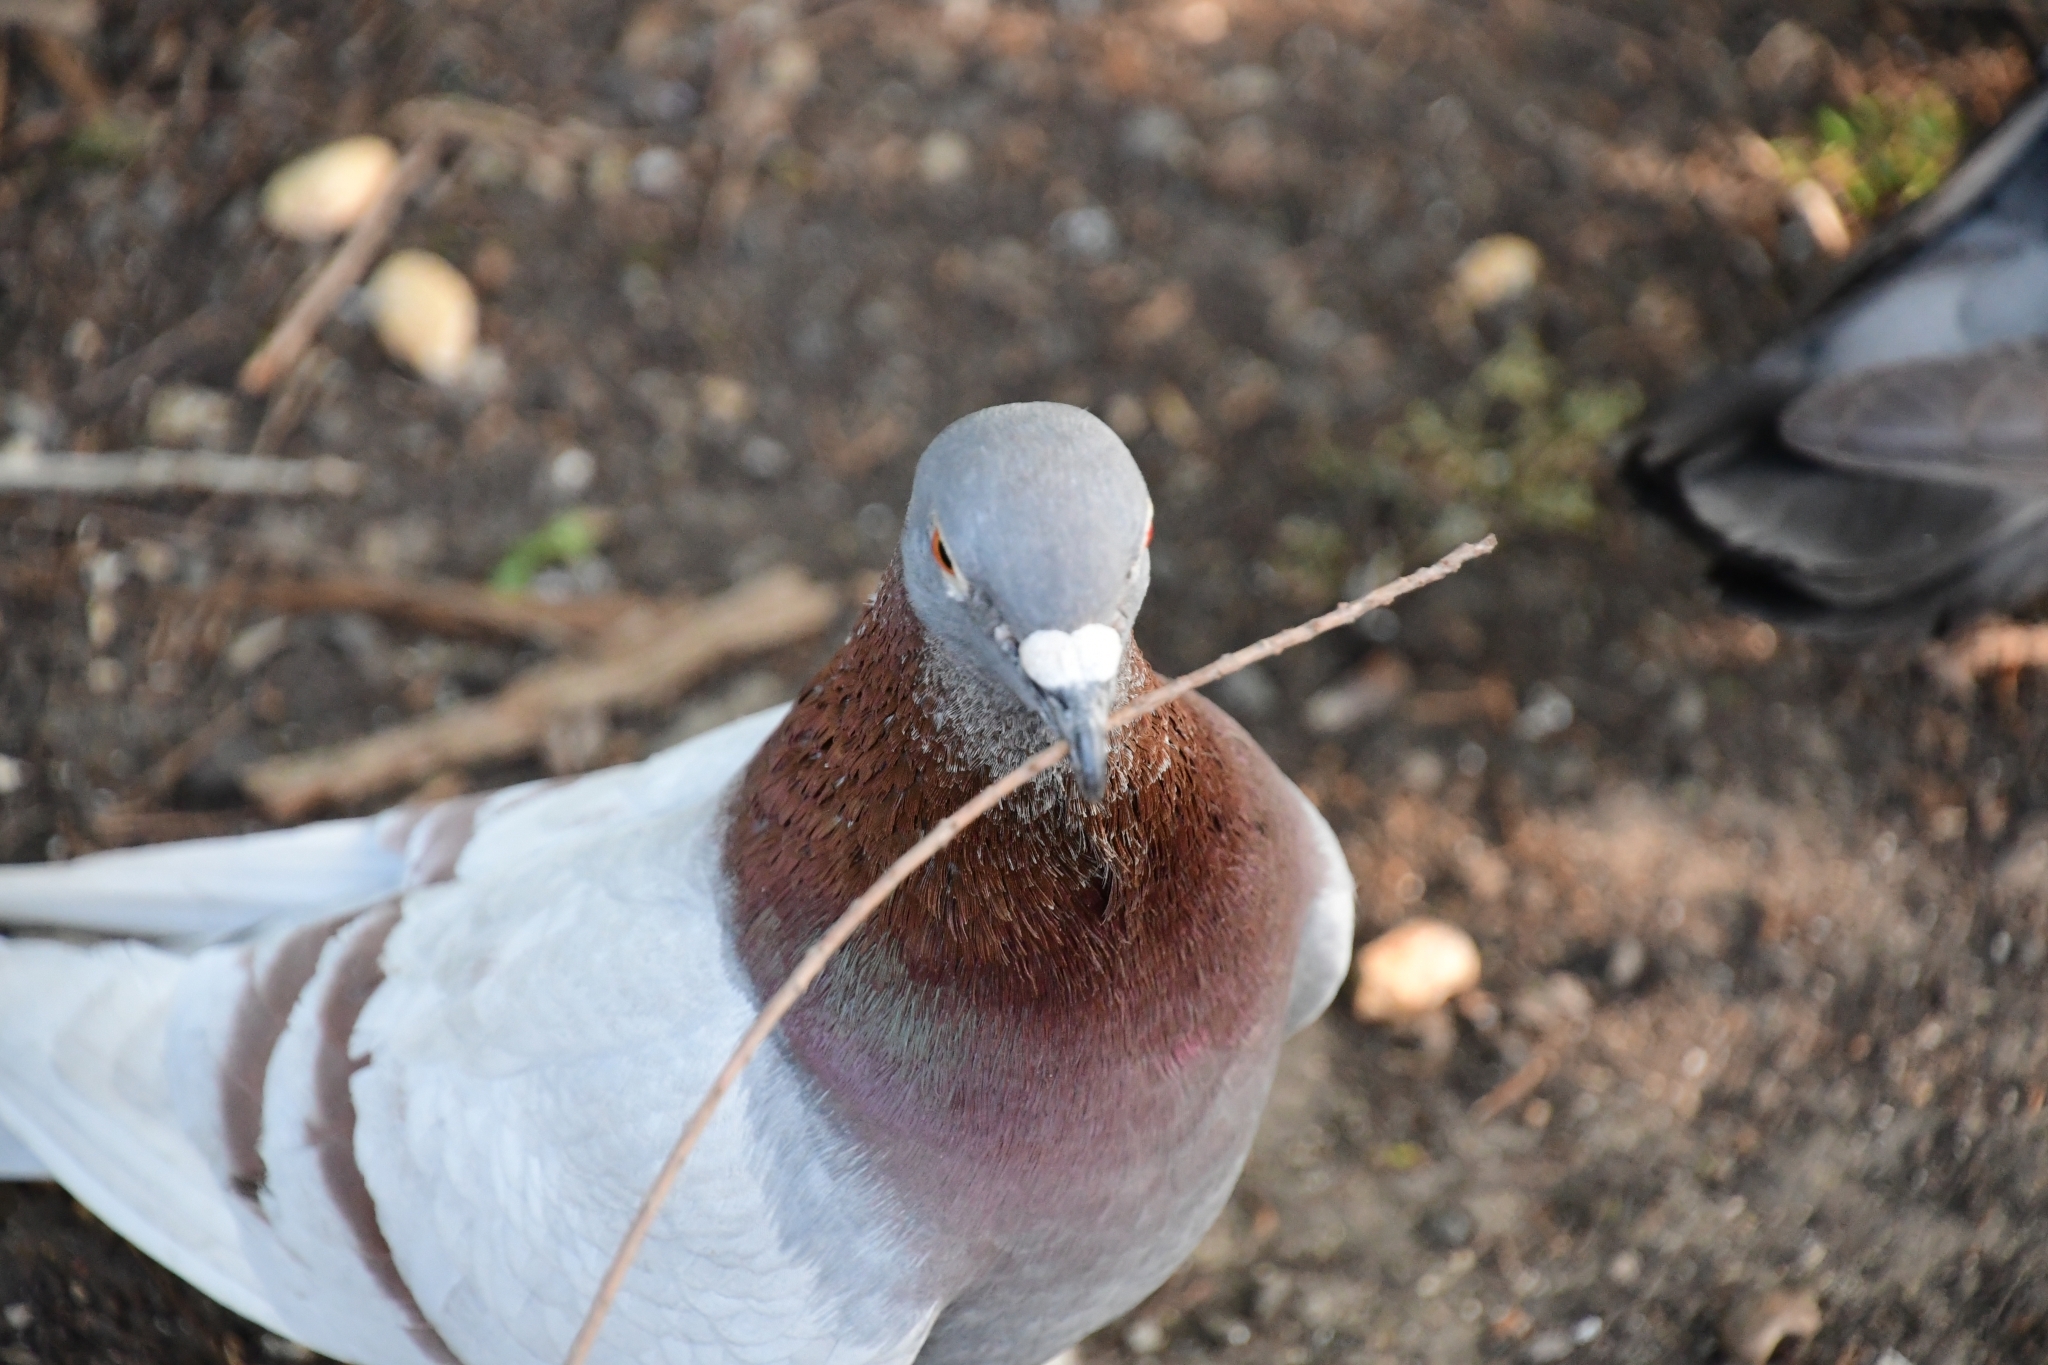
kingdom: Animalia
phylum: Chordata
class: Aves
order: Columbiformes
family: Columbidae
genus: Columba
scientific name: Columba livia
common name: Rock pigeon
